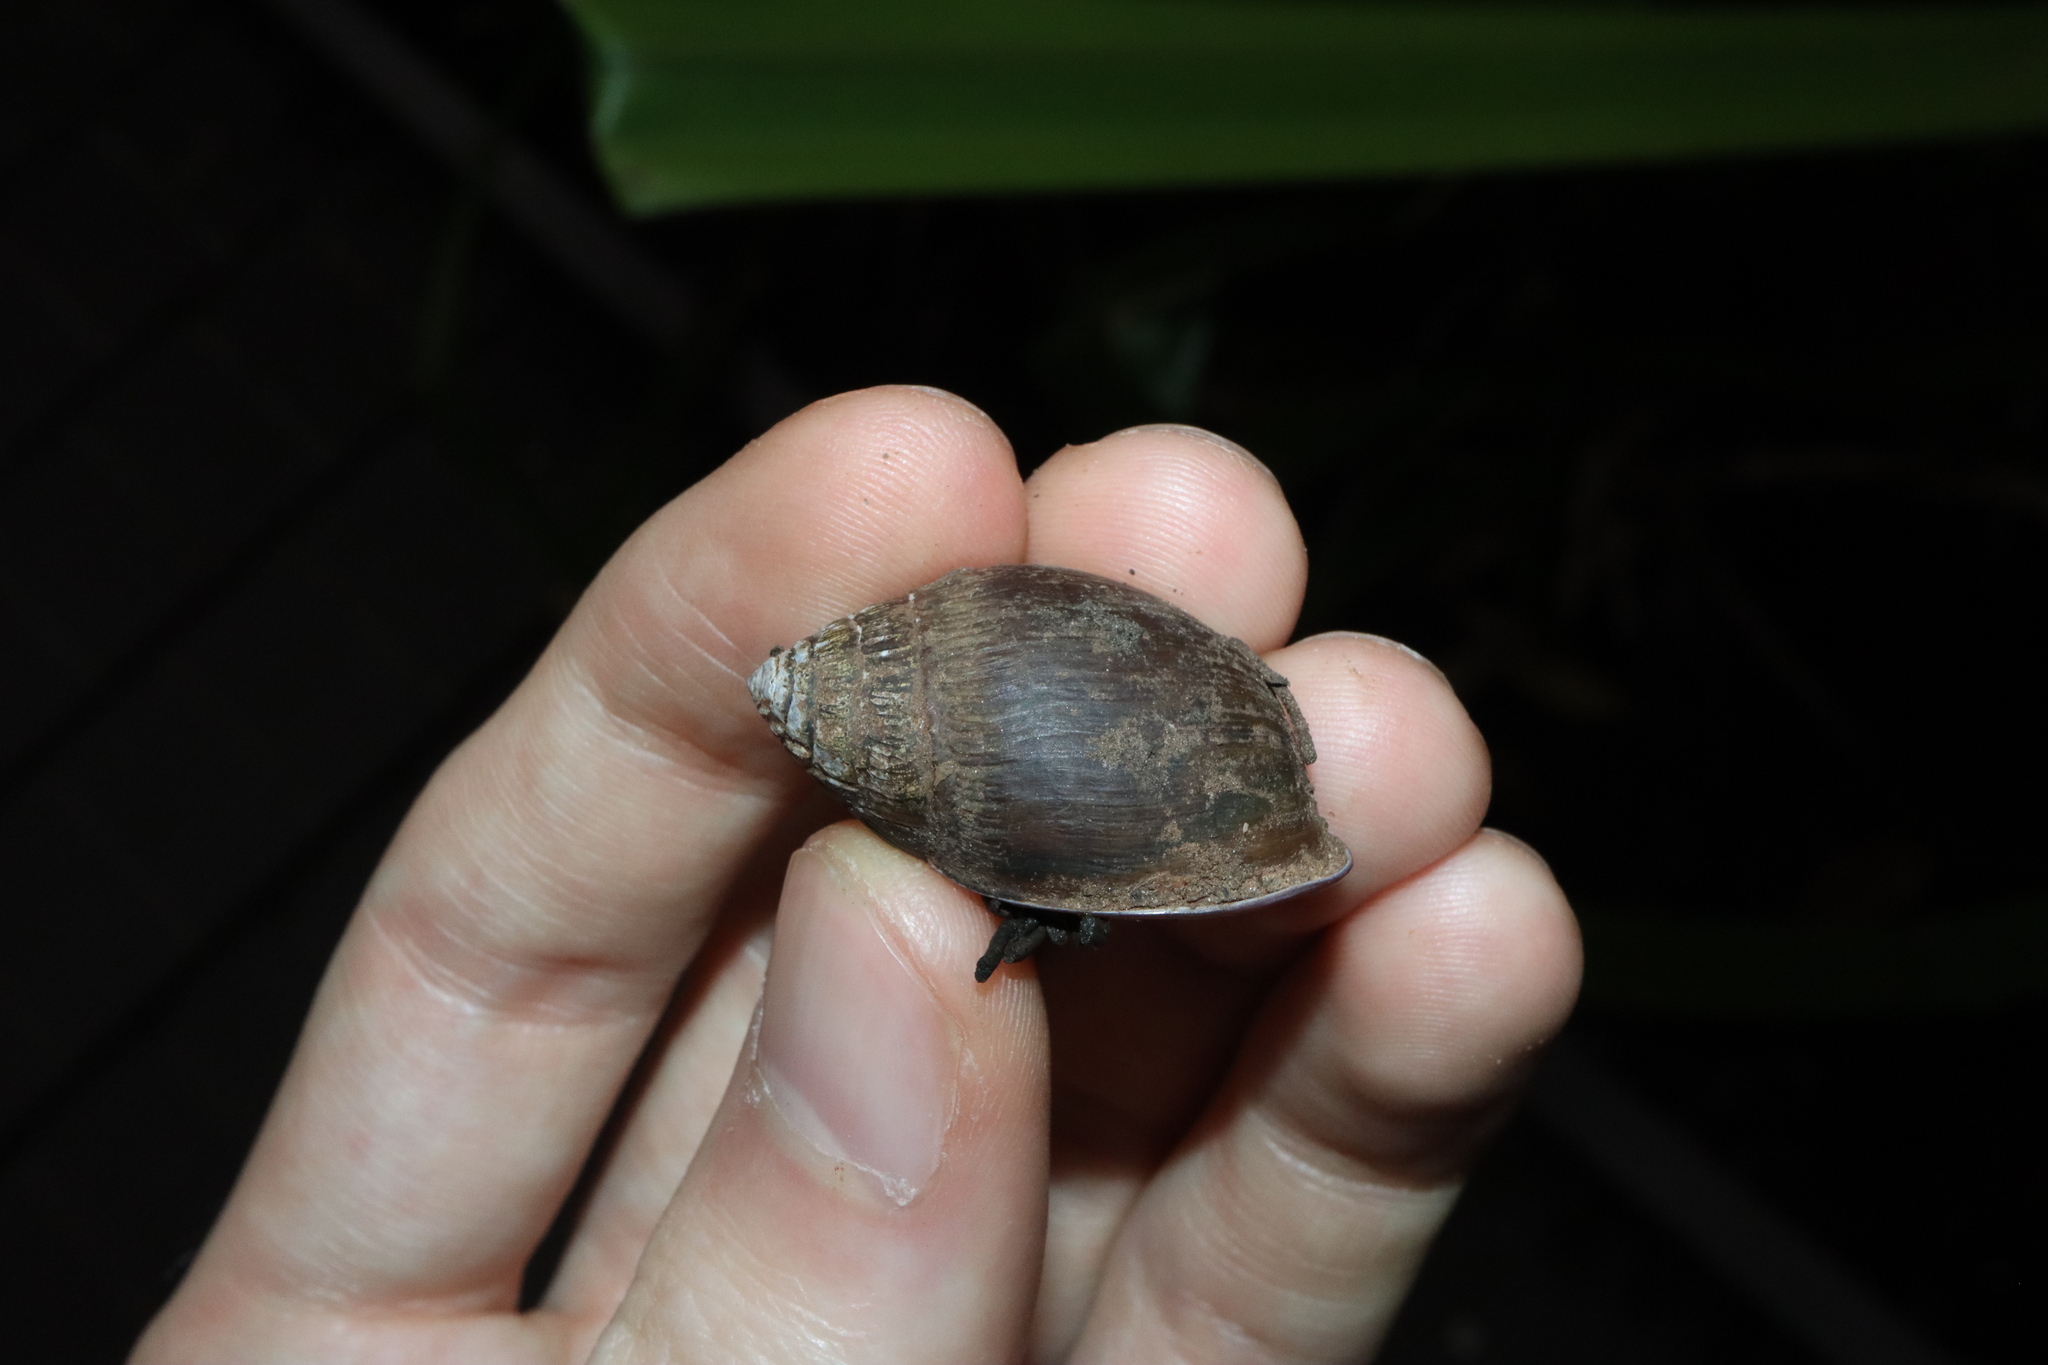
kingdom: Animalia
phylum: Mollusca
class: Gastropoda
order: Ellobiida
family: Ellobiidae
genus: Pythia
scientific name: Pythia scarabaeus
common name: Common pythia
